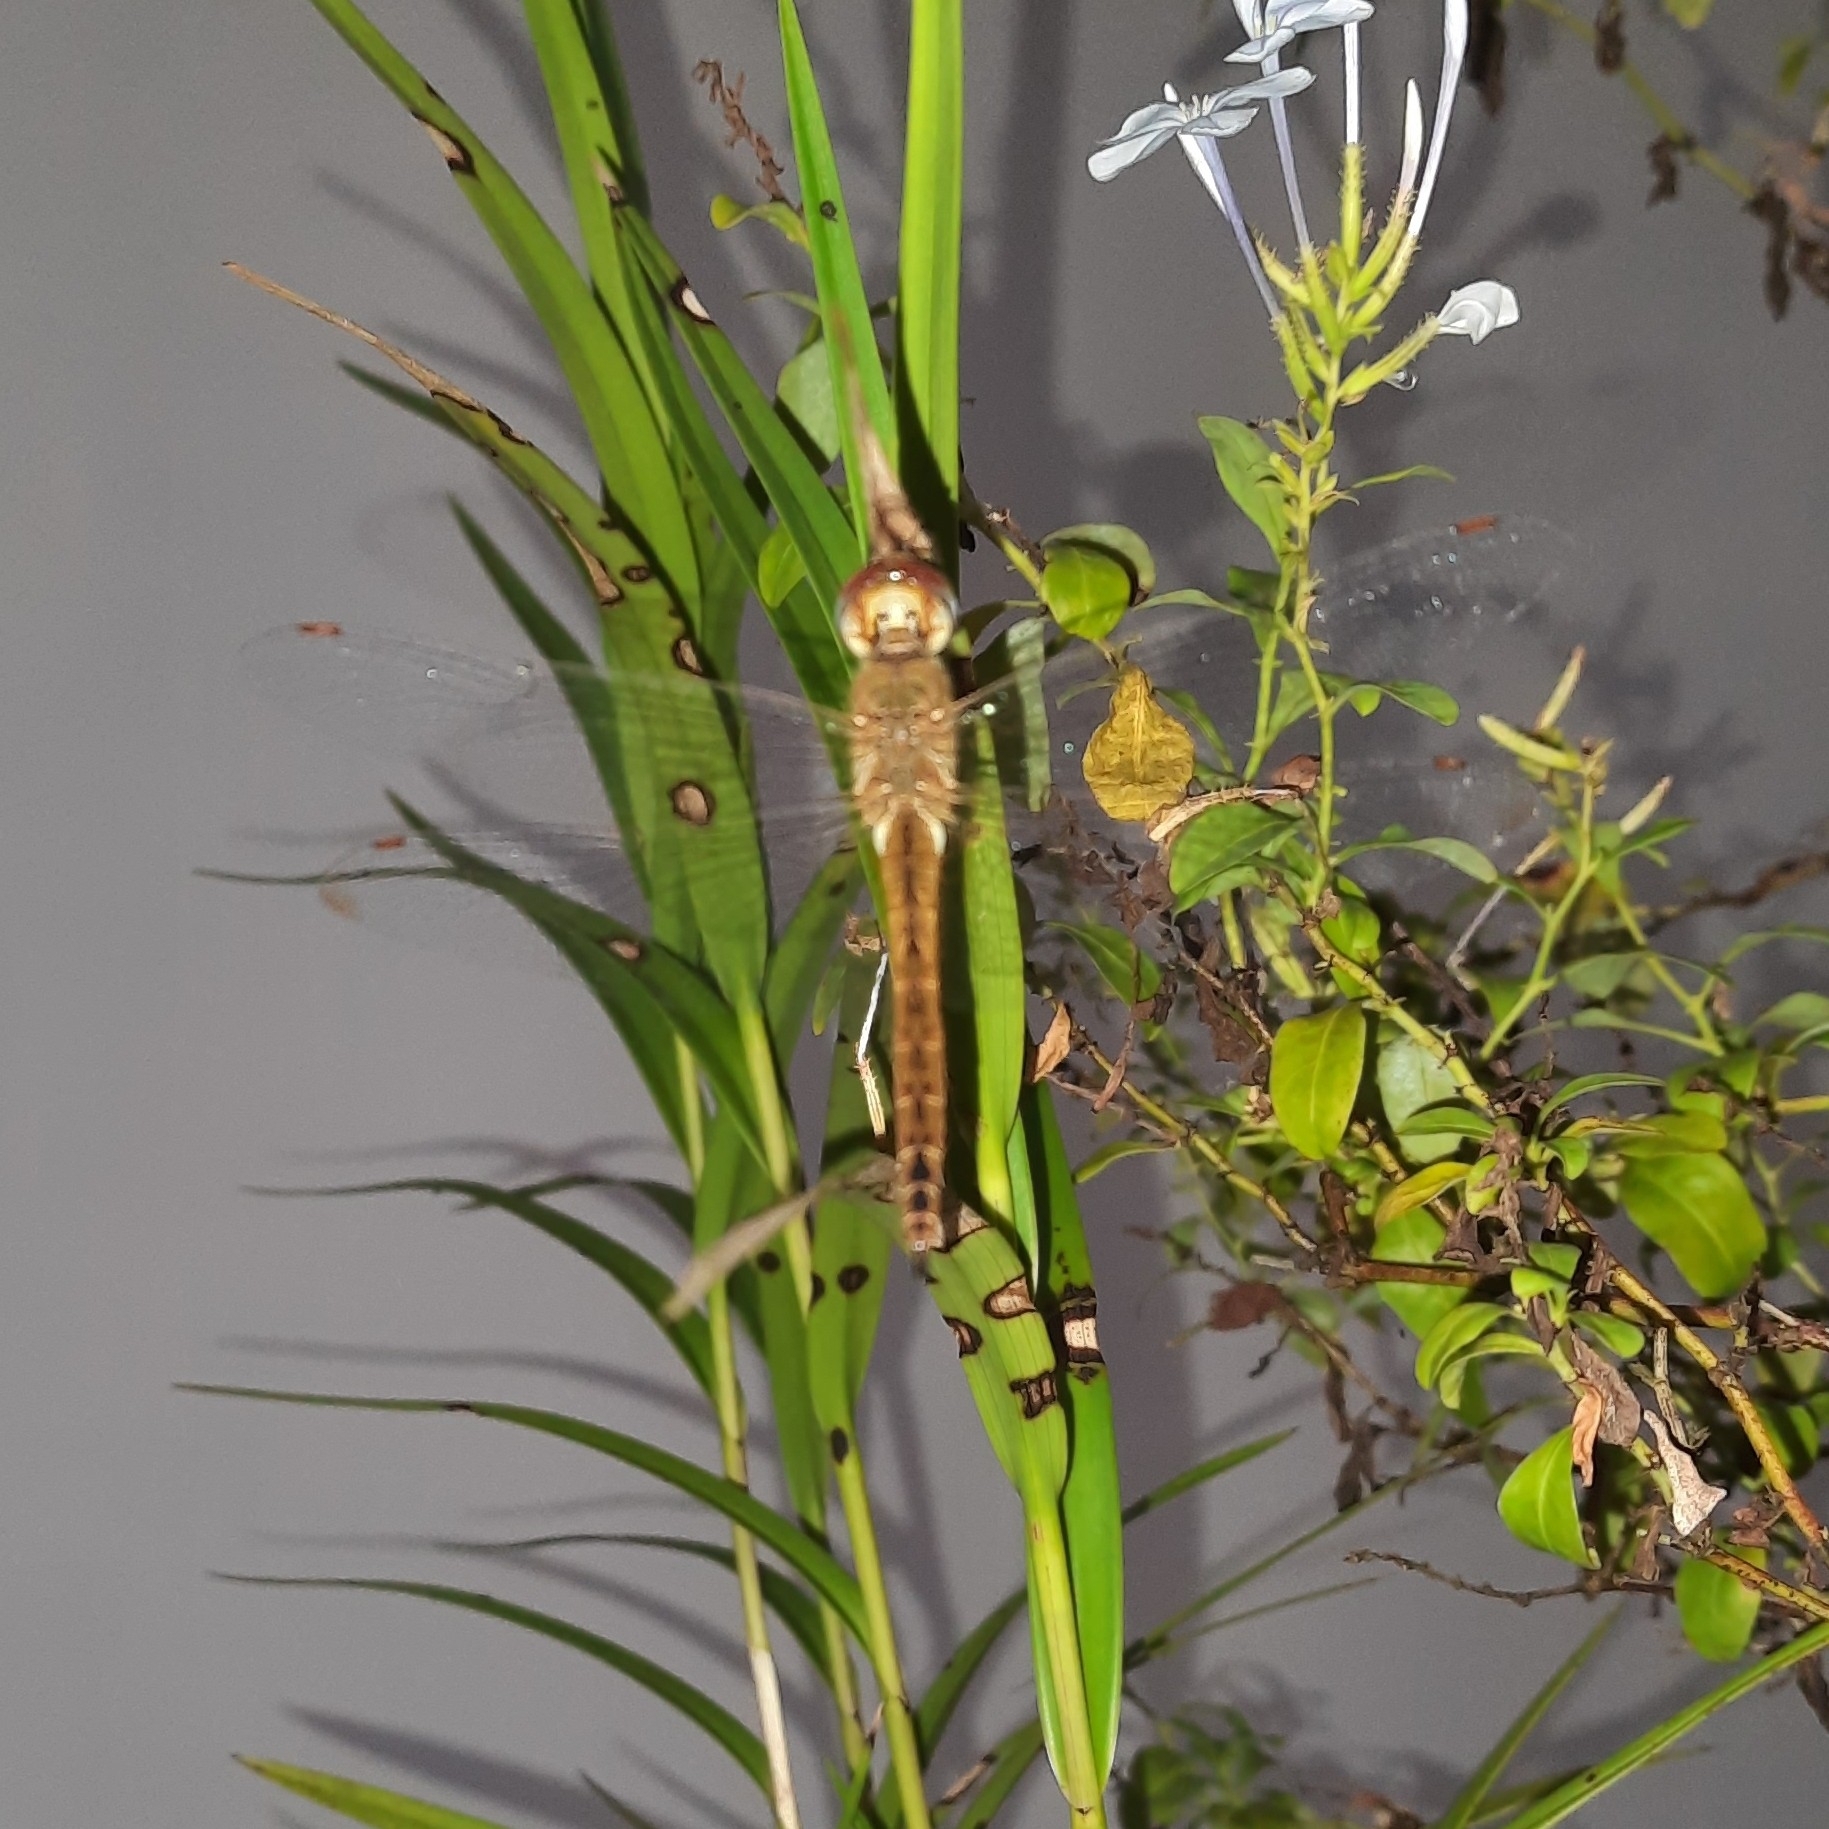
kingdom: Animalia
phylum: Arthropoda
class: Insecta
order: Odonata
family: Libellulidae
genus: Pantala
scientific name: Pantala flavescens
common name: Wandering glider
